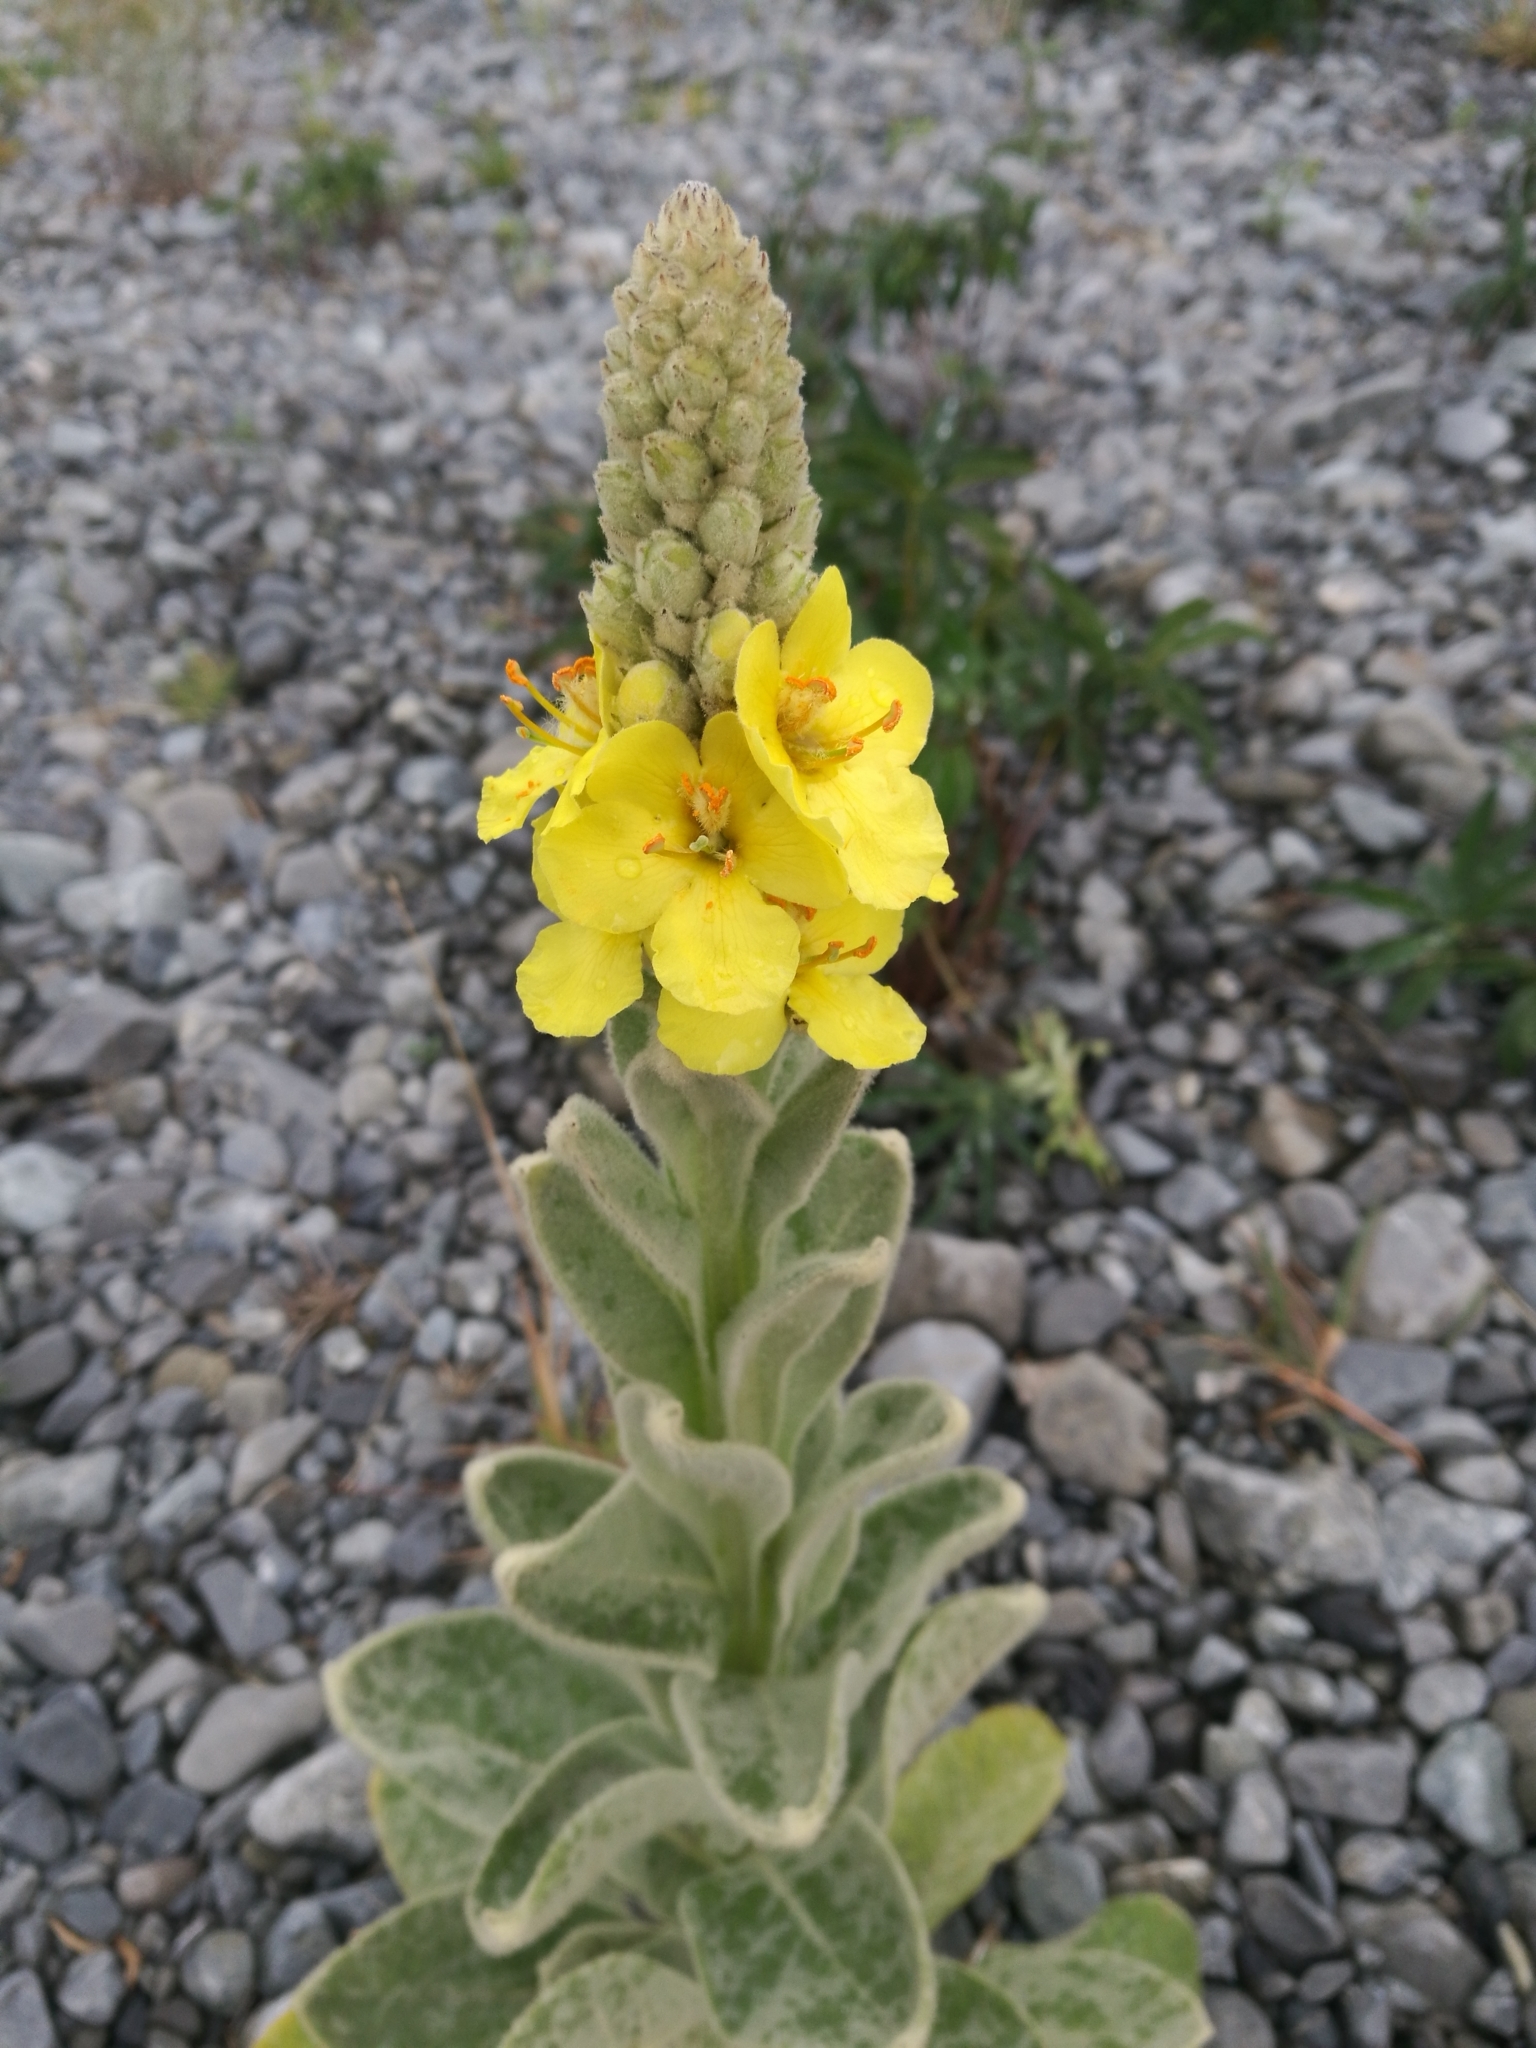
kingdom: Plantae
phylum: Tracheophyta
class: Magnoliopsida
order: Lamiales
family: Scrophulariaceae
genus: Verbascum
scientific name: Verbascum thapsus
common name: Common mullein
